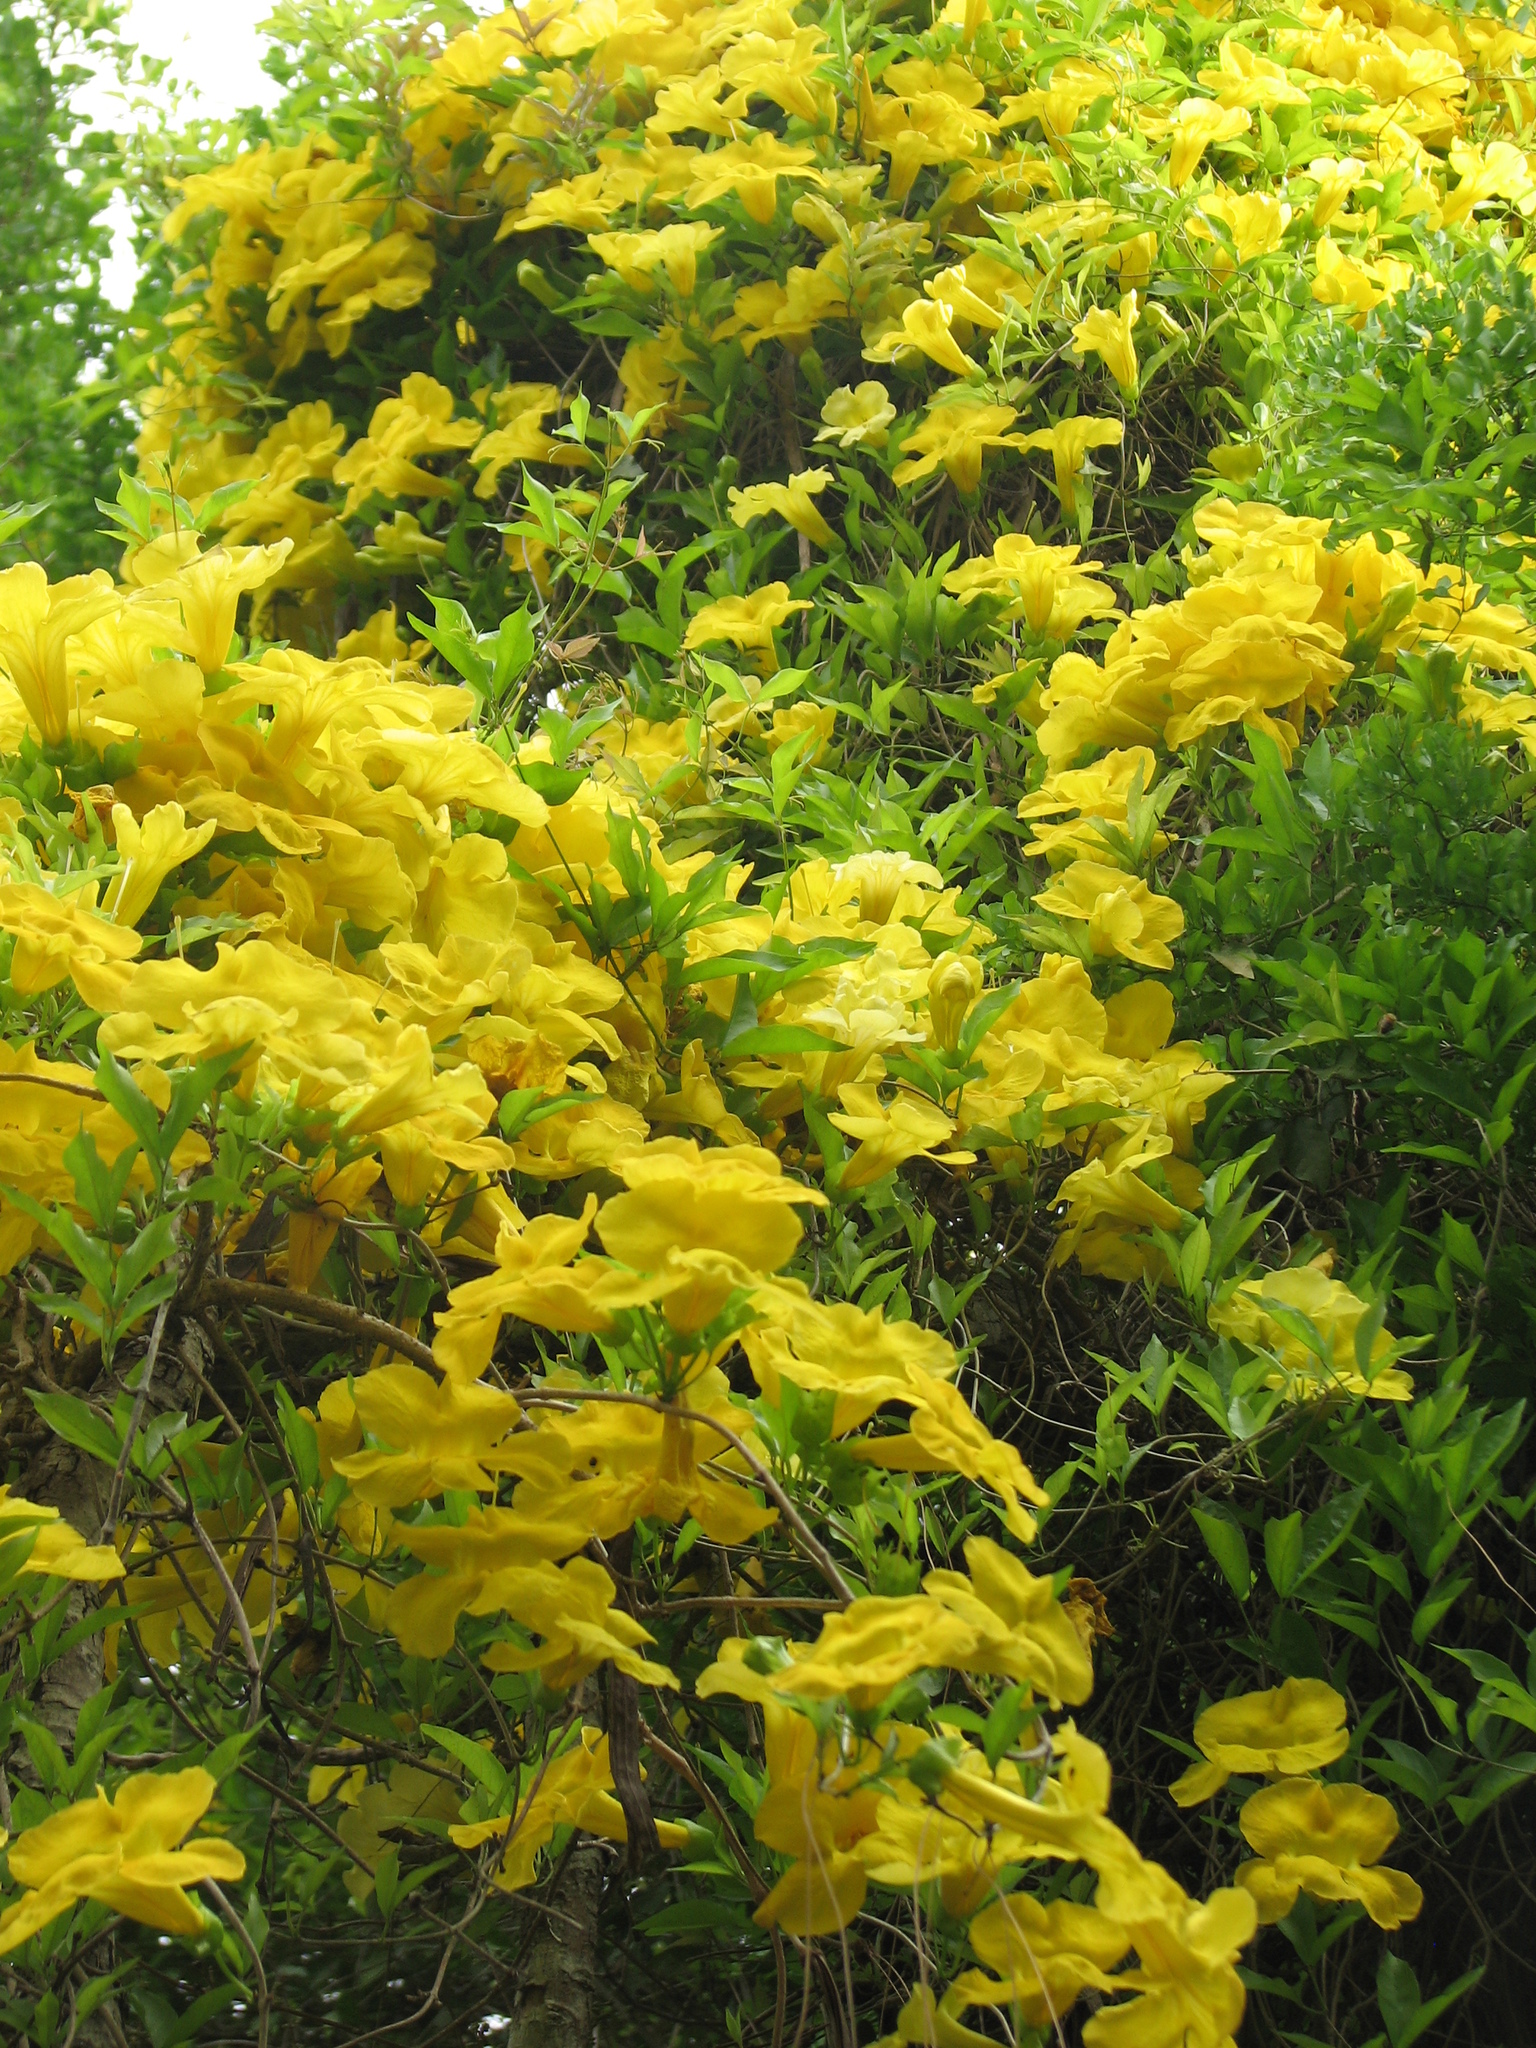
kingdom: Plantae
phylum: Tracheophyta
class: Magnoliopsida
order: Lamiales
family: Bignoniaceae
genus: Dolichandra
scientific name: Dolichandra unguis-cati
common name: Catclaw vine
